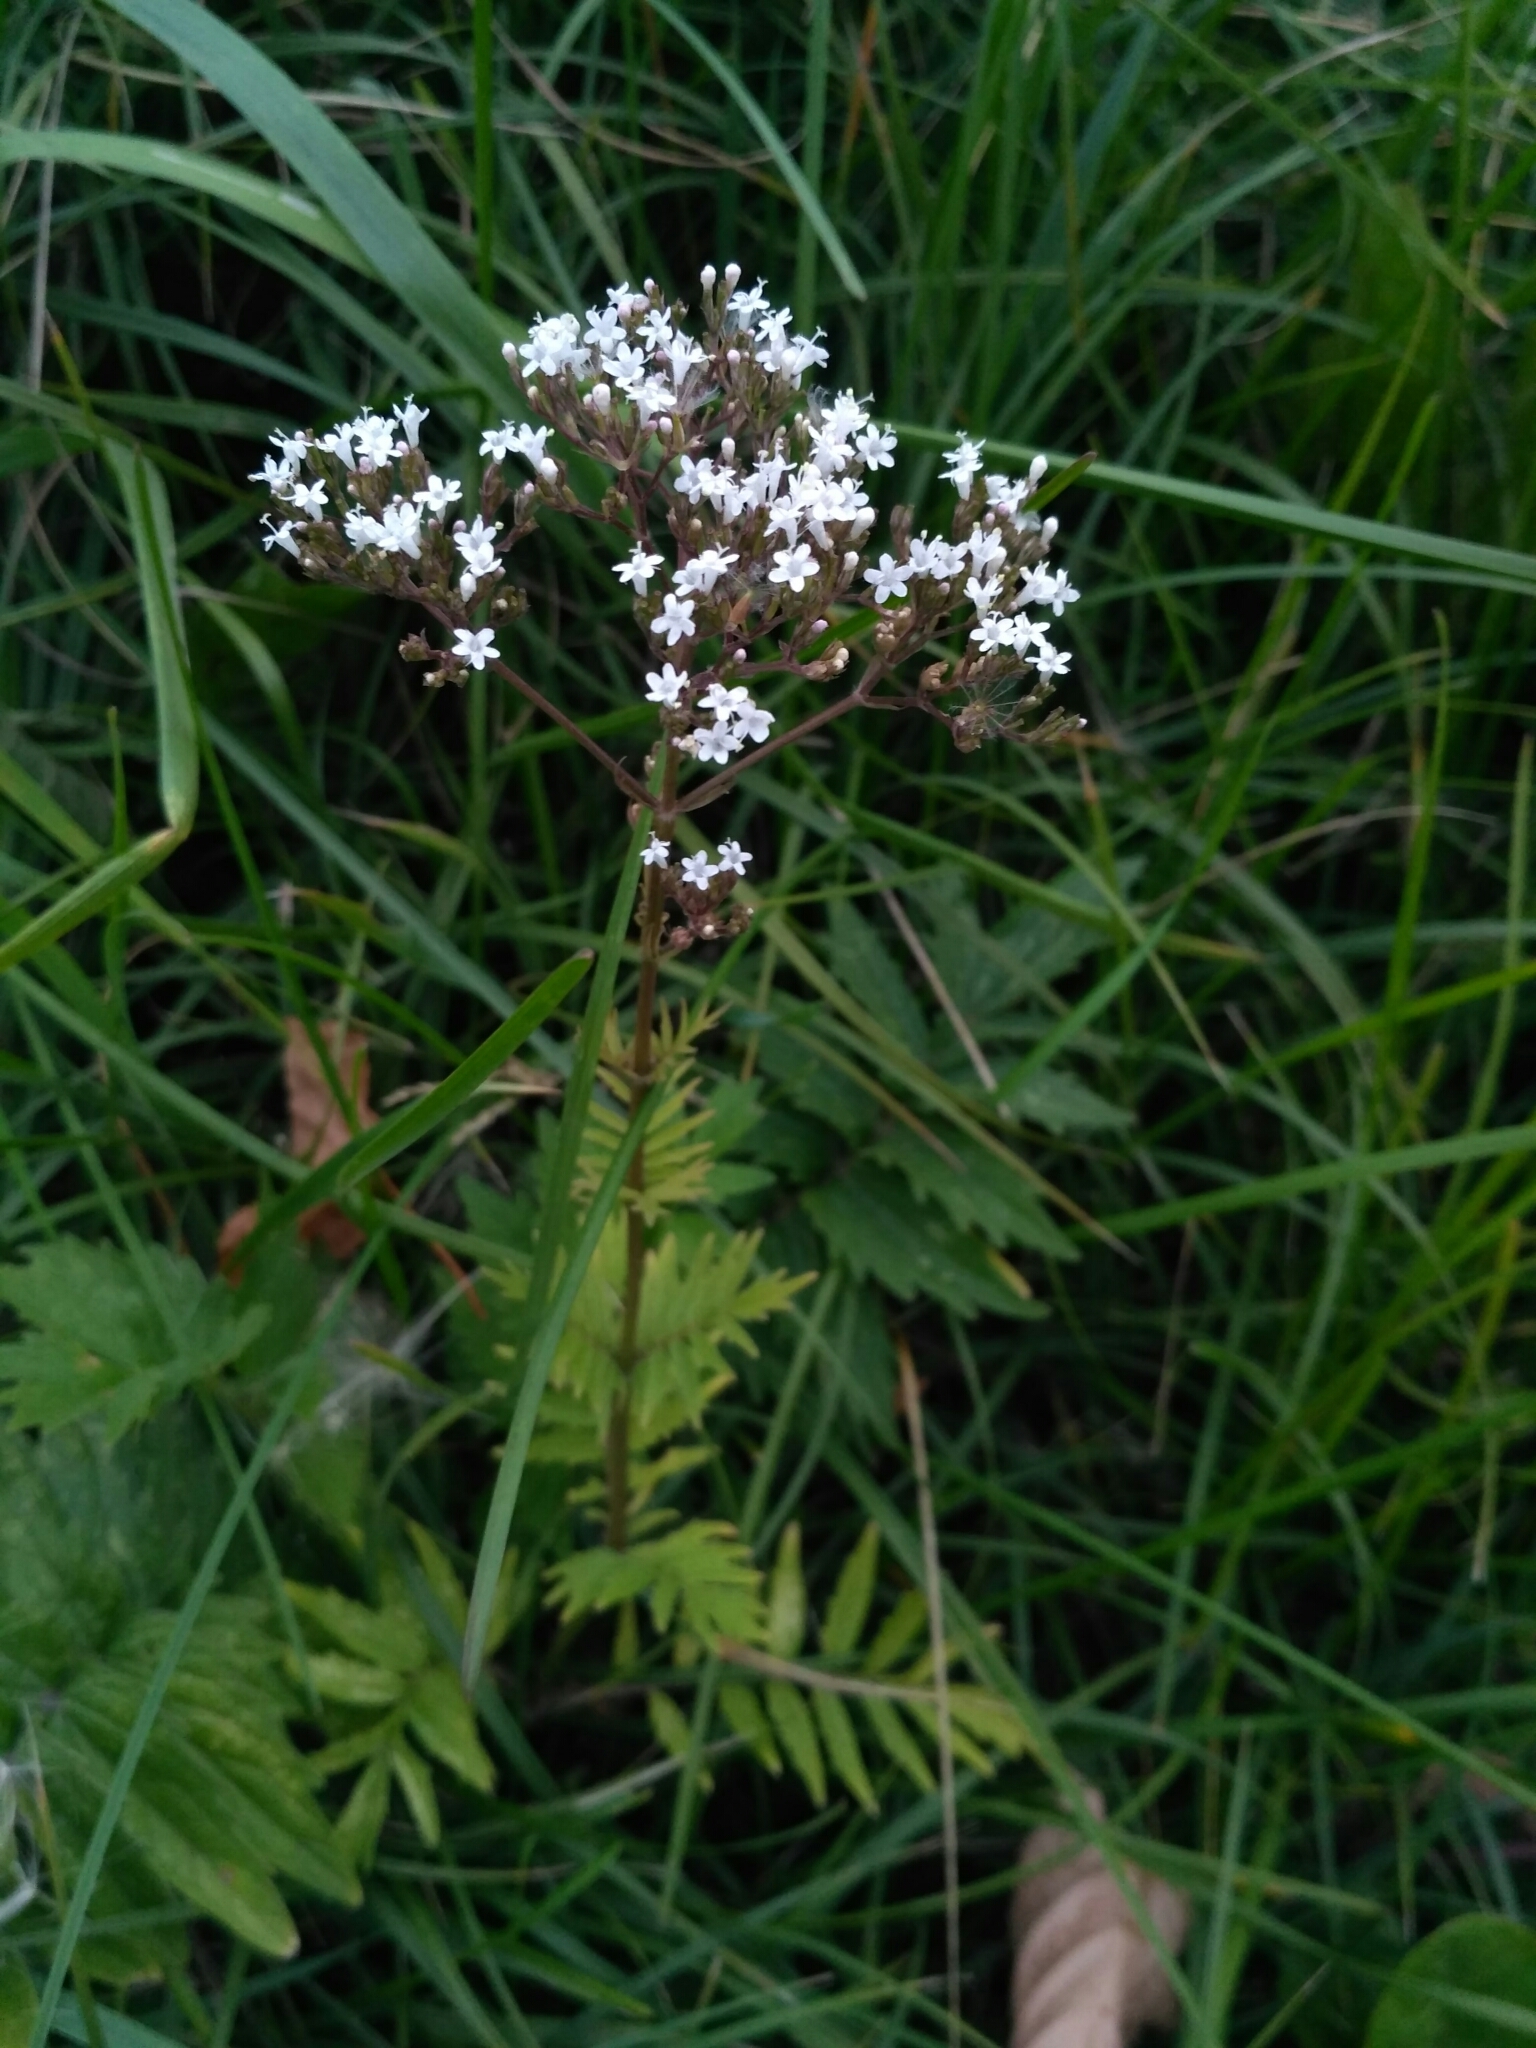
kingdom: Plantae
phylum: Tracheophyta
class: Magnoliopsida
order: Dipsacales
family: Caprifoliaceae
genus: Valeriana
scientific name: Valeriana officinalis
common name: Common valerian
